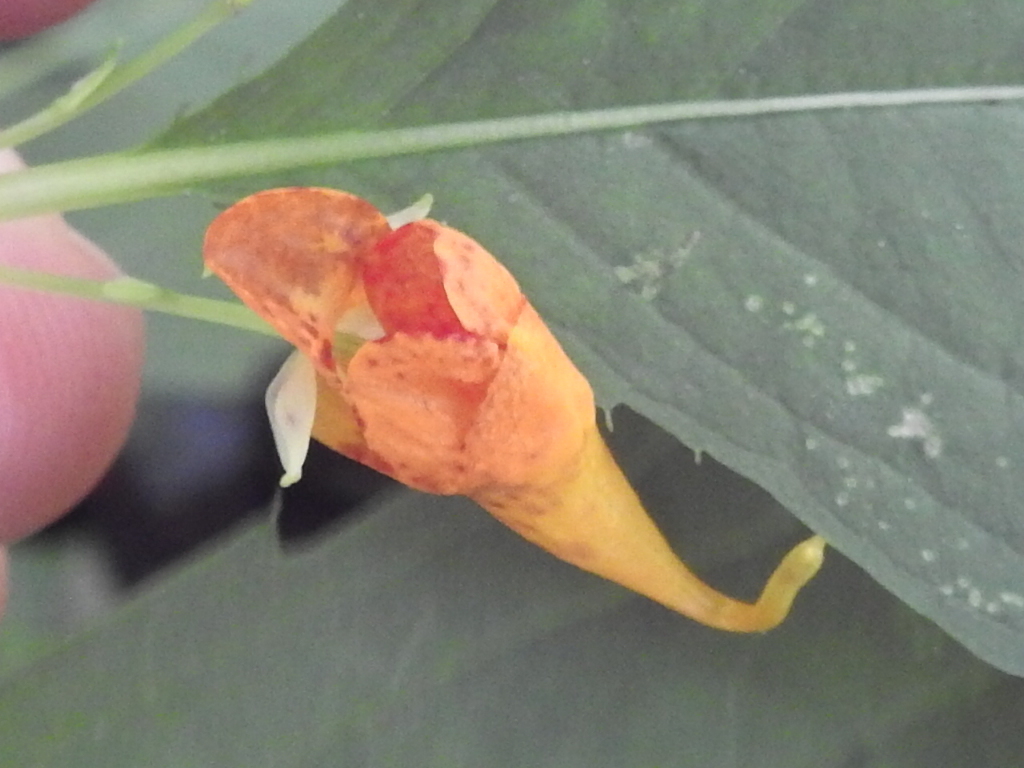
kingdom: Plantae
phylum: Tracheophyta
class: Magnoliopsida
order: Ericales
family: Balsaminaceae
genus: Impatiens
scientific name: Impatiens capensis
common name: Orange balsam
